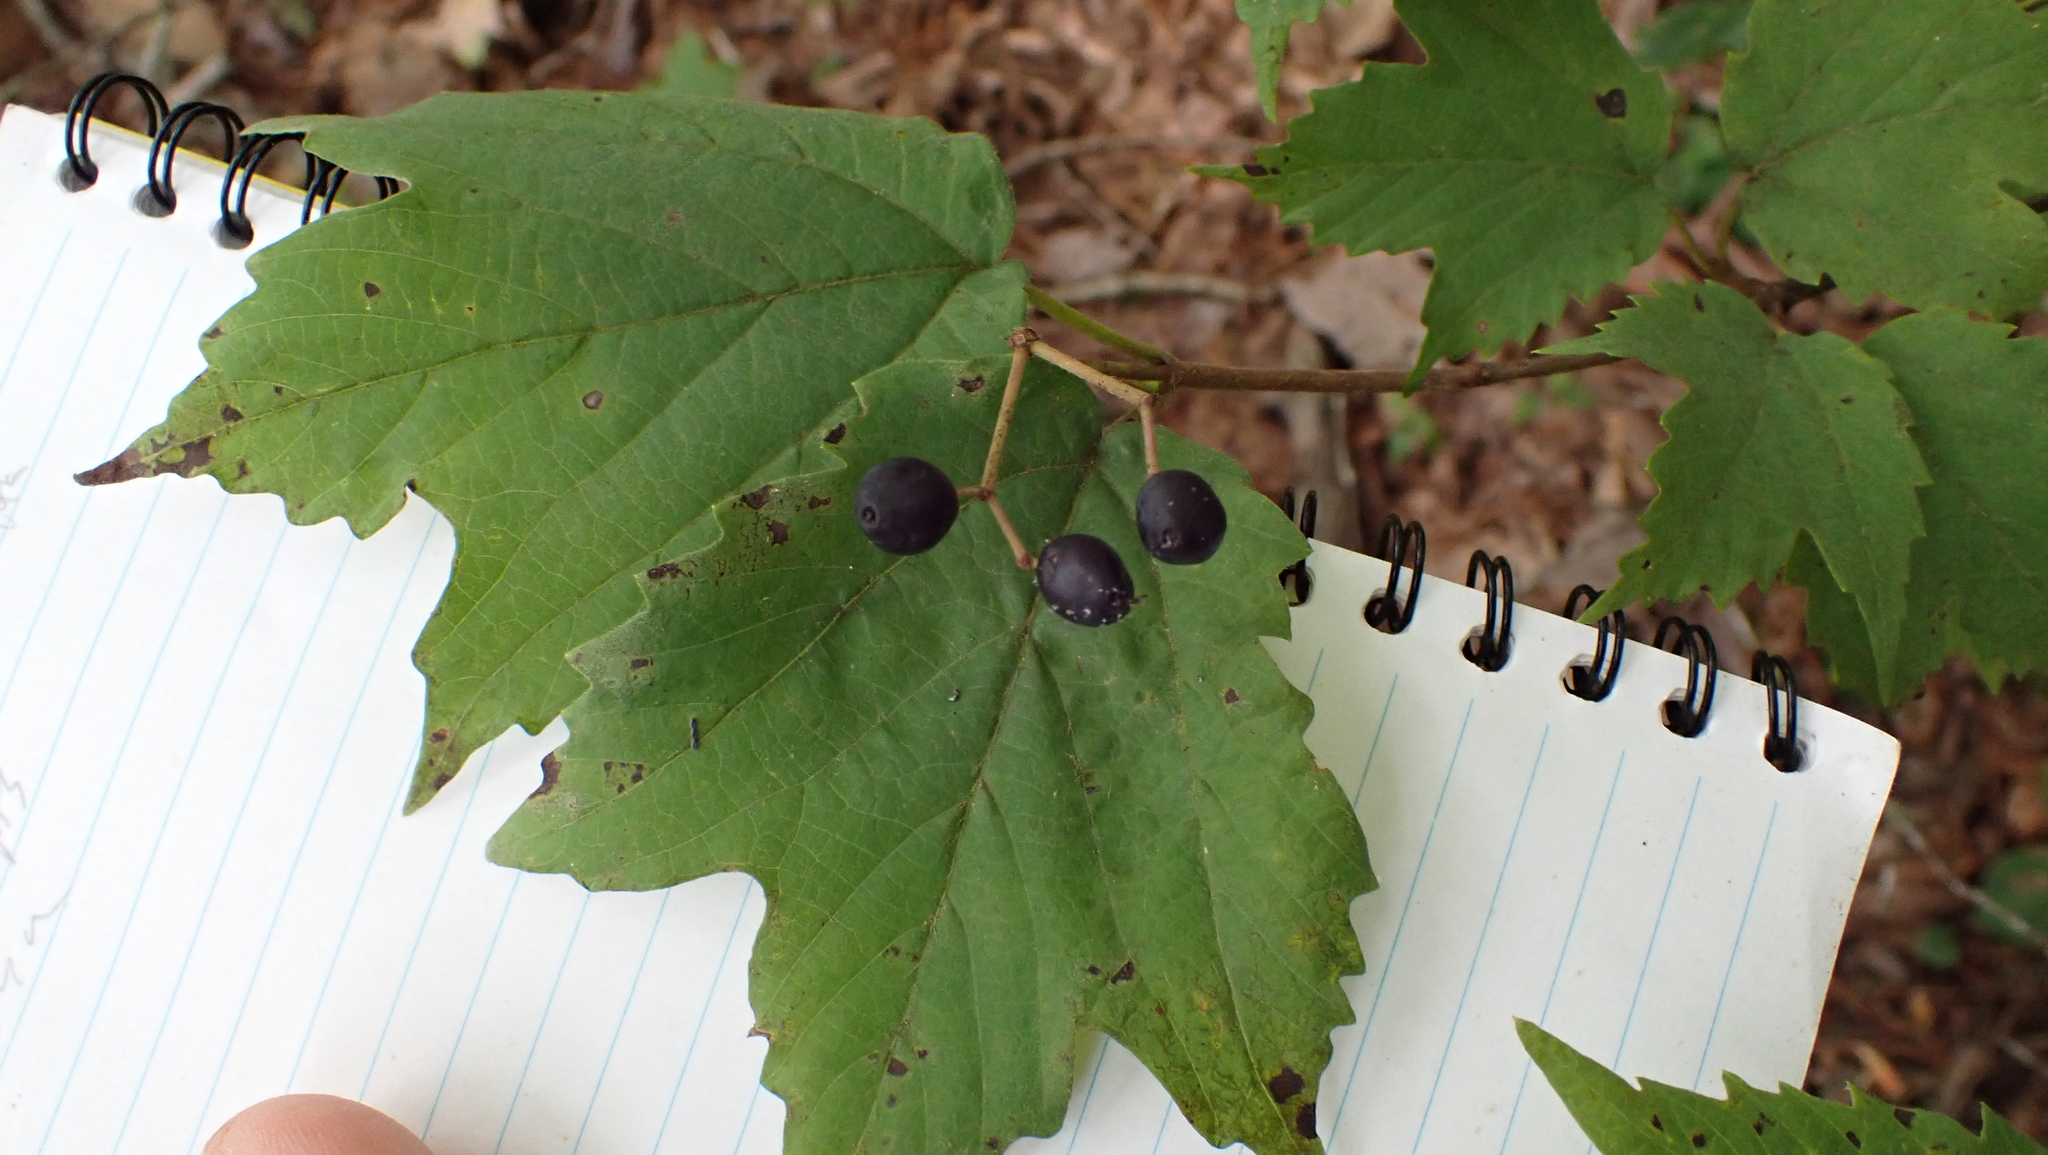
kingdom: Plantae
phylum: Tracheophyta
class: Magnoliopsida
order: Dipsacales
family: Viburnaceae
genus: Viburnum
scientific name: Viburnum acerifolium
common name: Dockmackie
